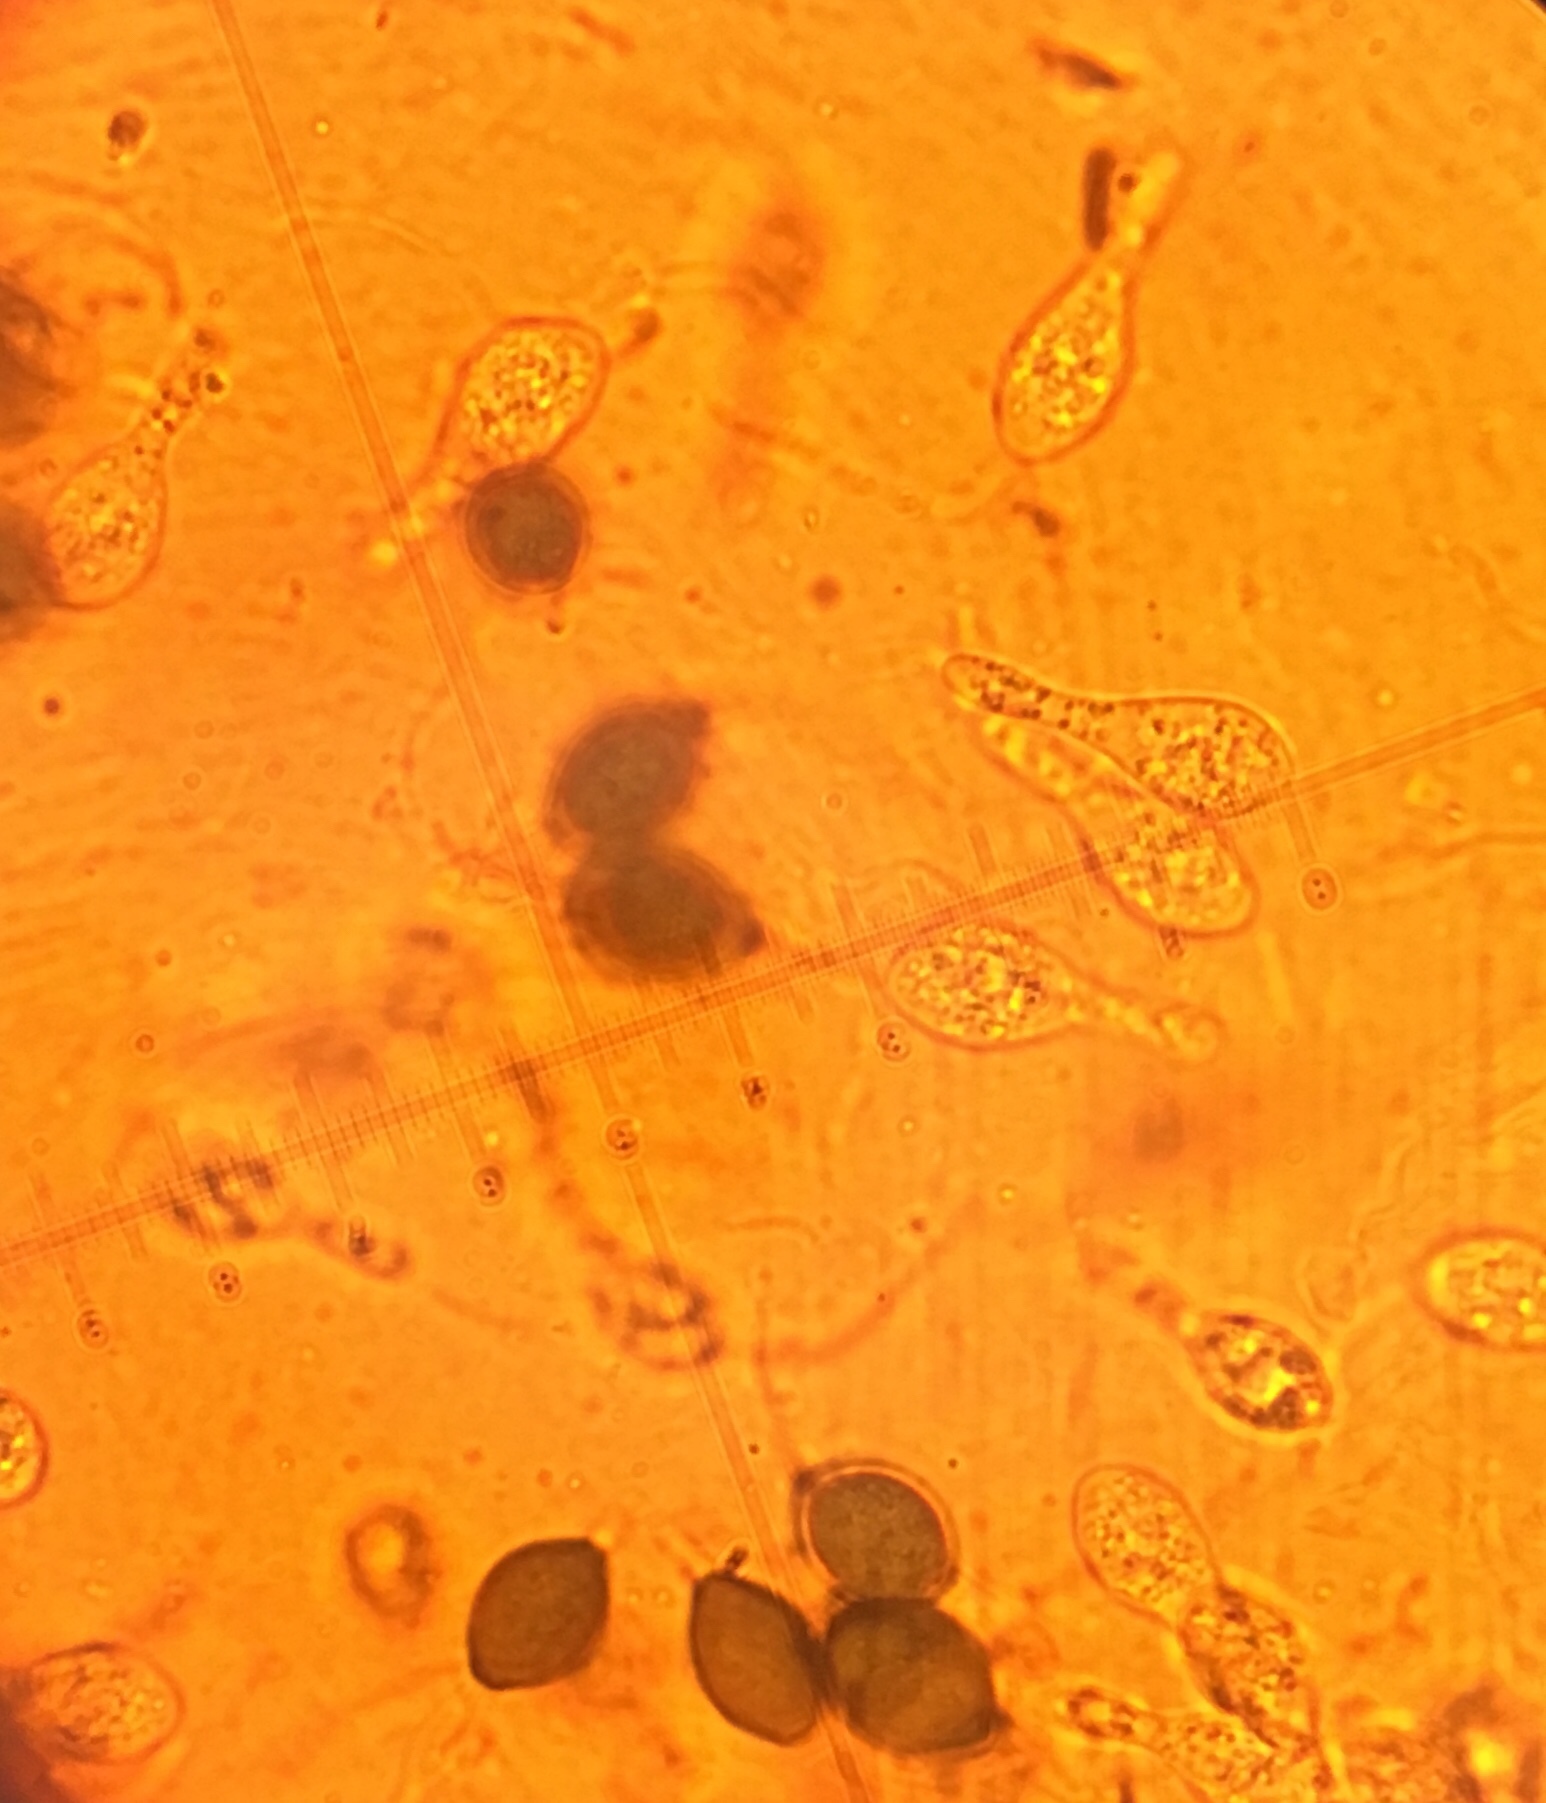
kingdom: Fungi
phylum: Ascomycota
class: Sordariomycetes
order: Sordariales
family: Schizotheciaceae
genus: Pseudoechria
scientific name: Pseudoechria curvicolla
